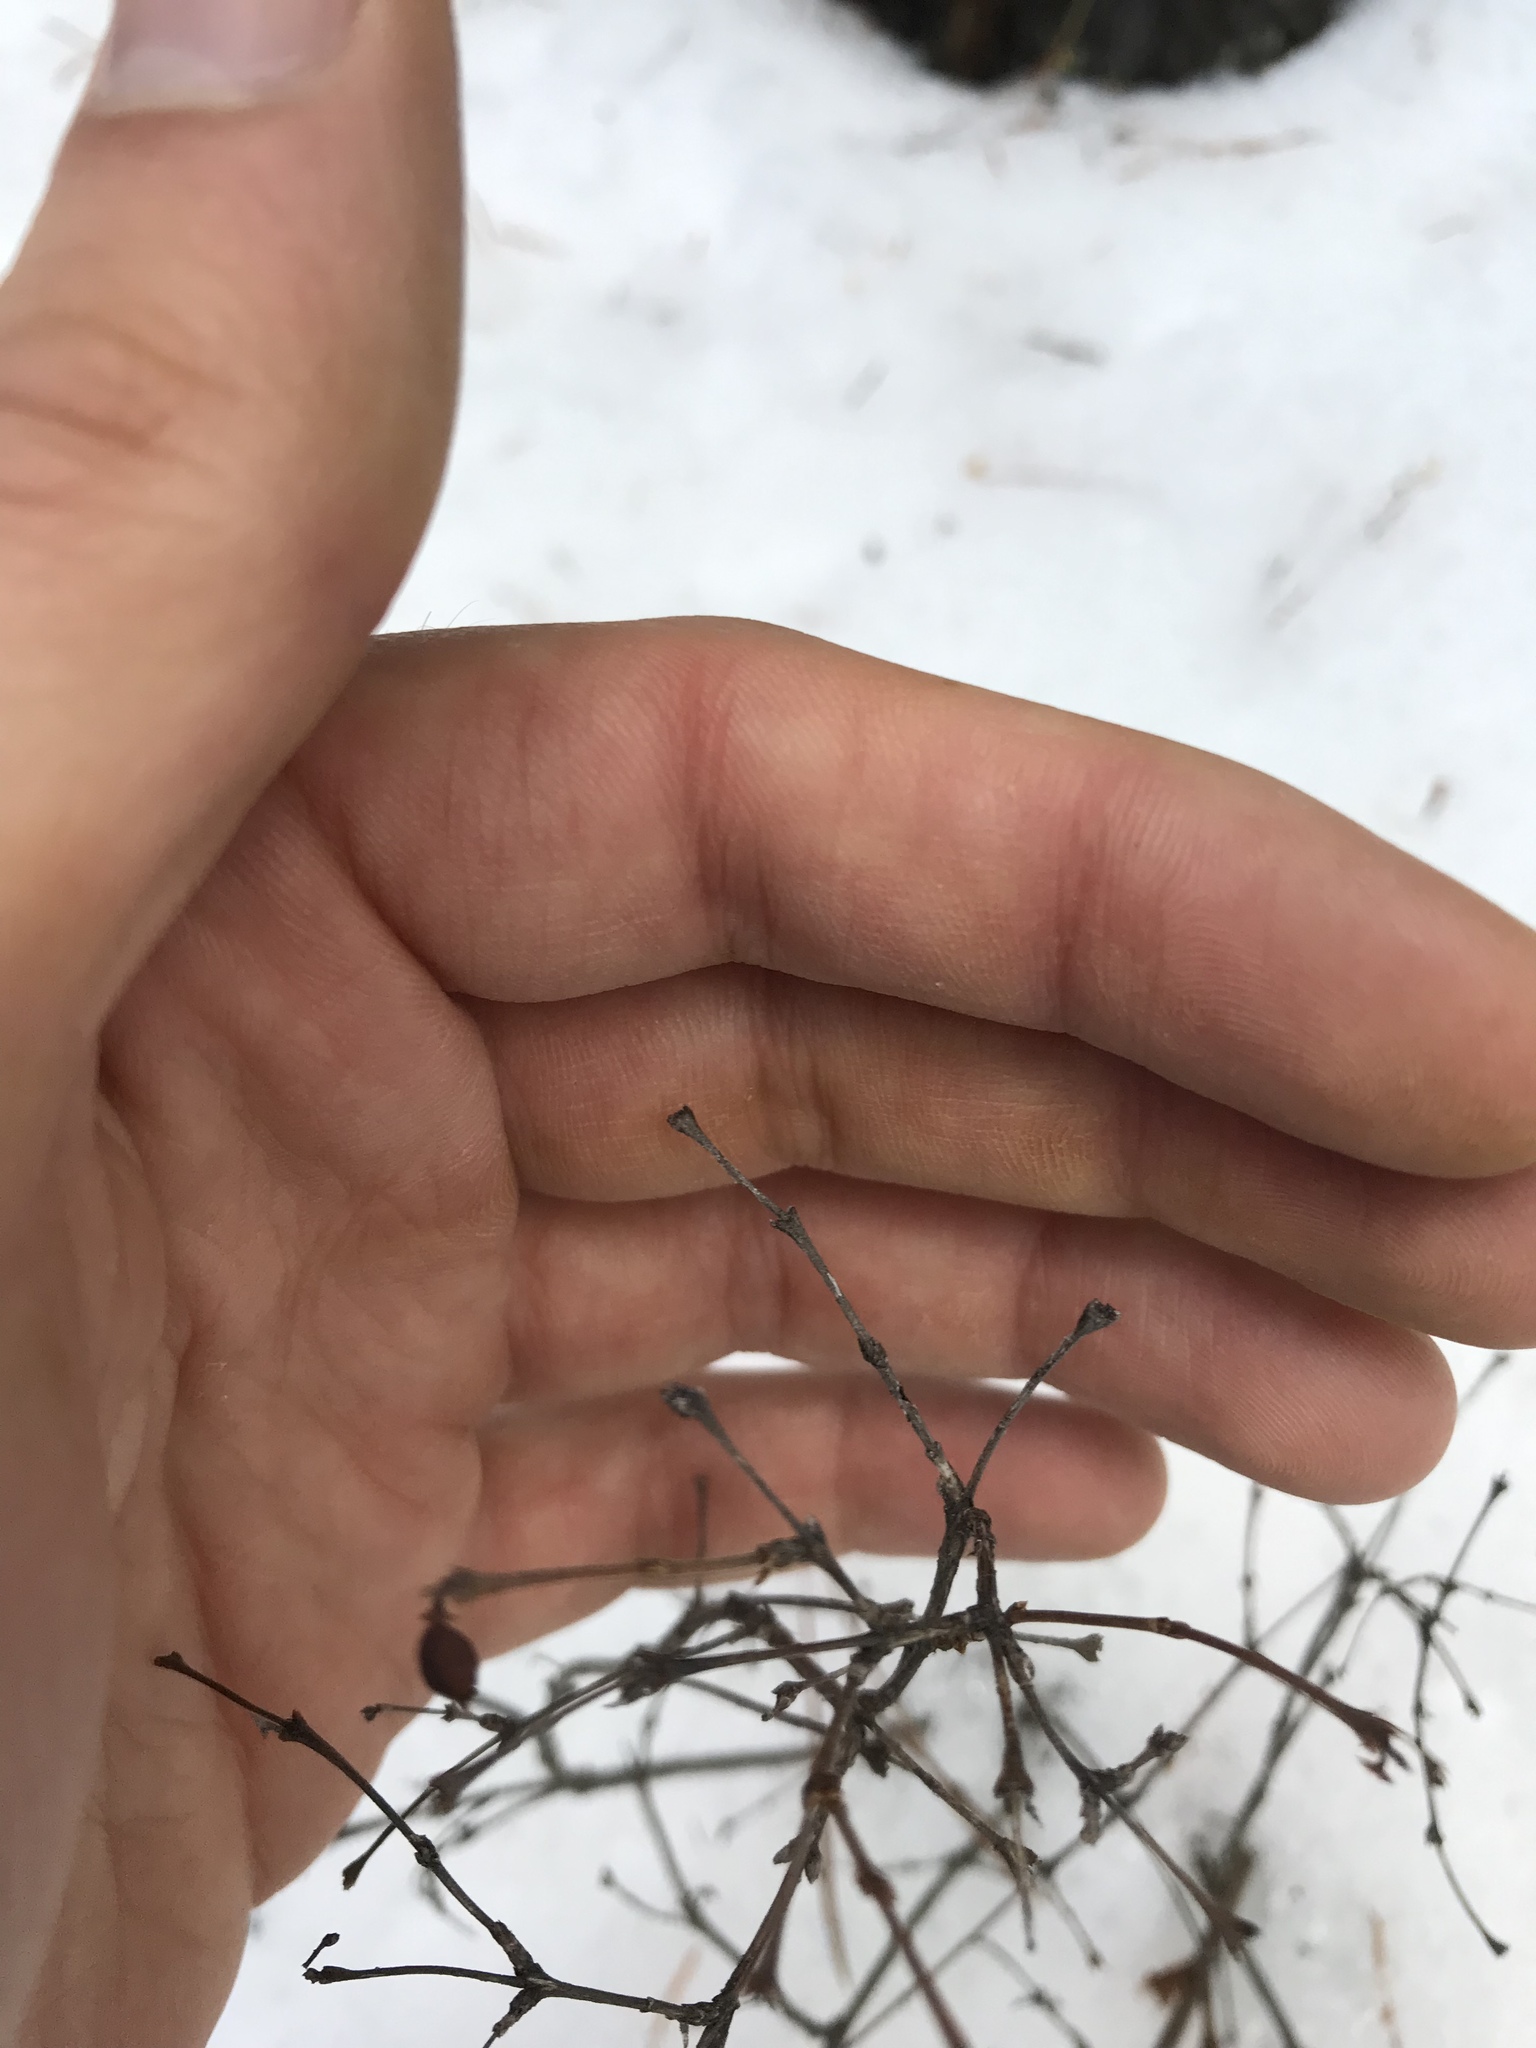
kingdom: Plantae
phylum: Tracheophyta
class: Magnoliopsida
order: Dipsacales
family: Caprifoliaceae
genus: Symphoricarpos
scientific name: Symphoricarpos occidentalis
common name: Wolfberry
